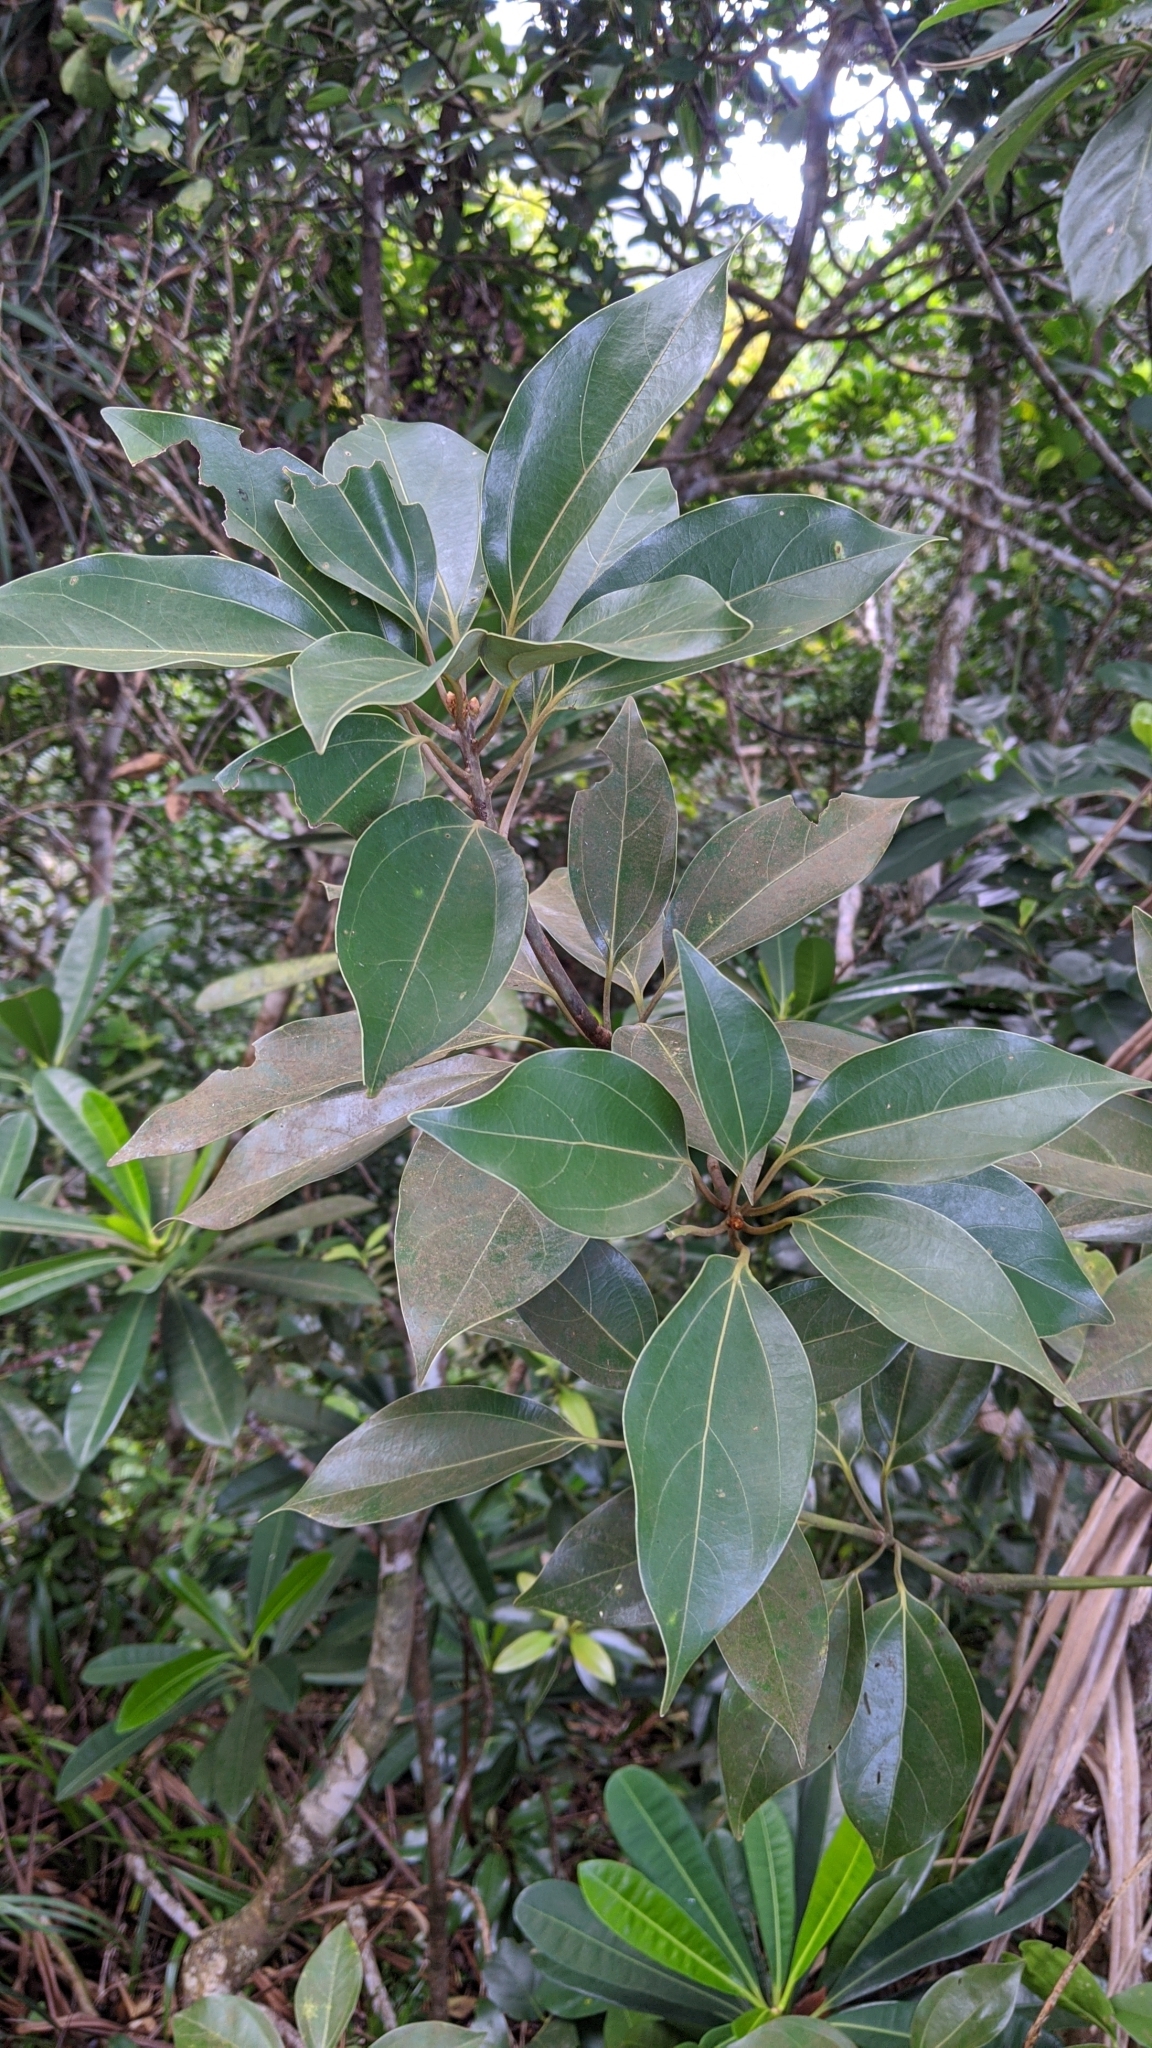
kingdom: Plantae
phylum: Tracheophyta
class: Magnoliopsida
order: Laurales
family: Lauraceae
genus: Neolitsea
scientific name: Neolitsea aurata
